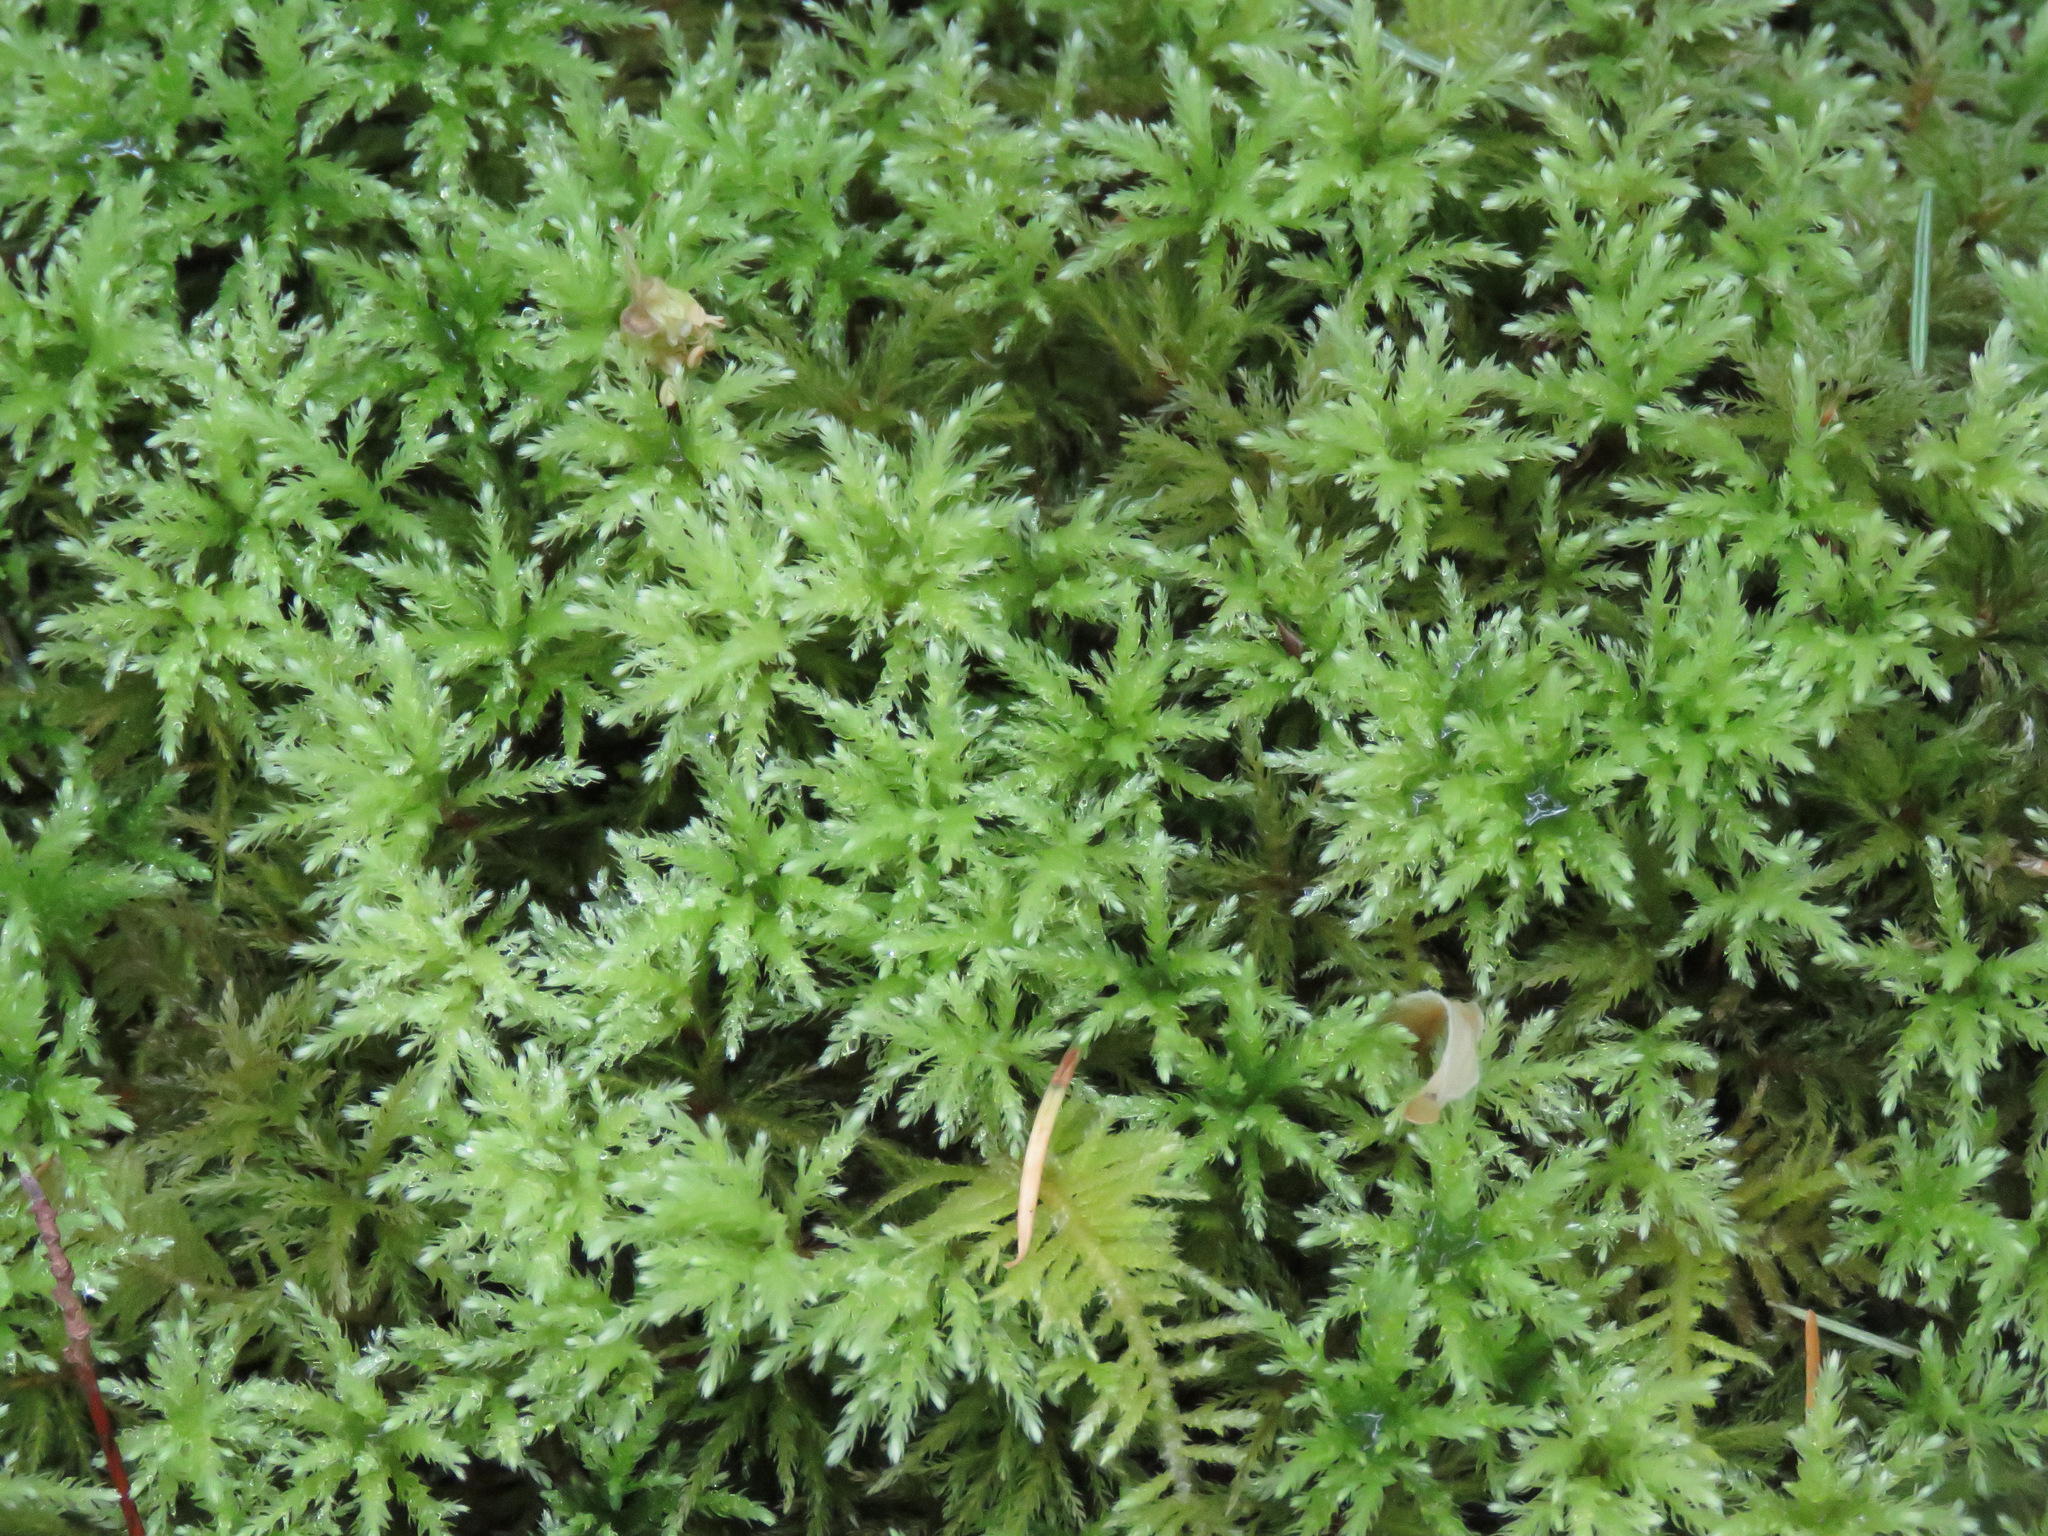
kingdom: Plantae
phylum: Bryophyta
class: Bryopsida
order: Bryales
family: Mniaceae
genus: Leucolepis
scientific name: Leucolepis acanthoneura
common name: Leucolepis umbrella moss
